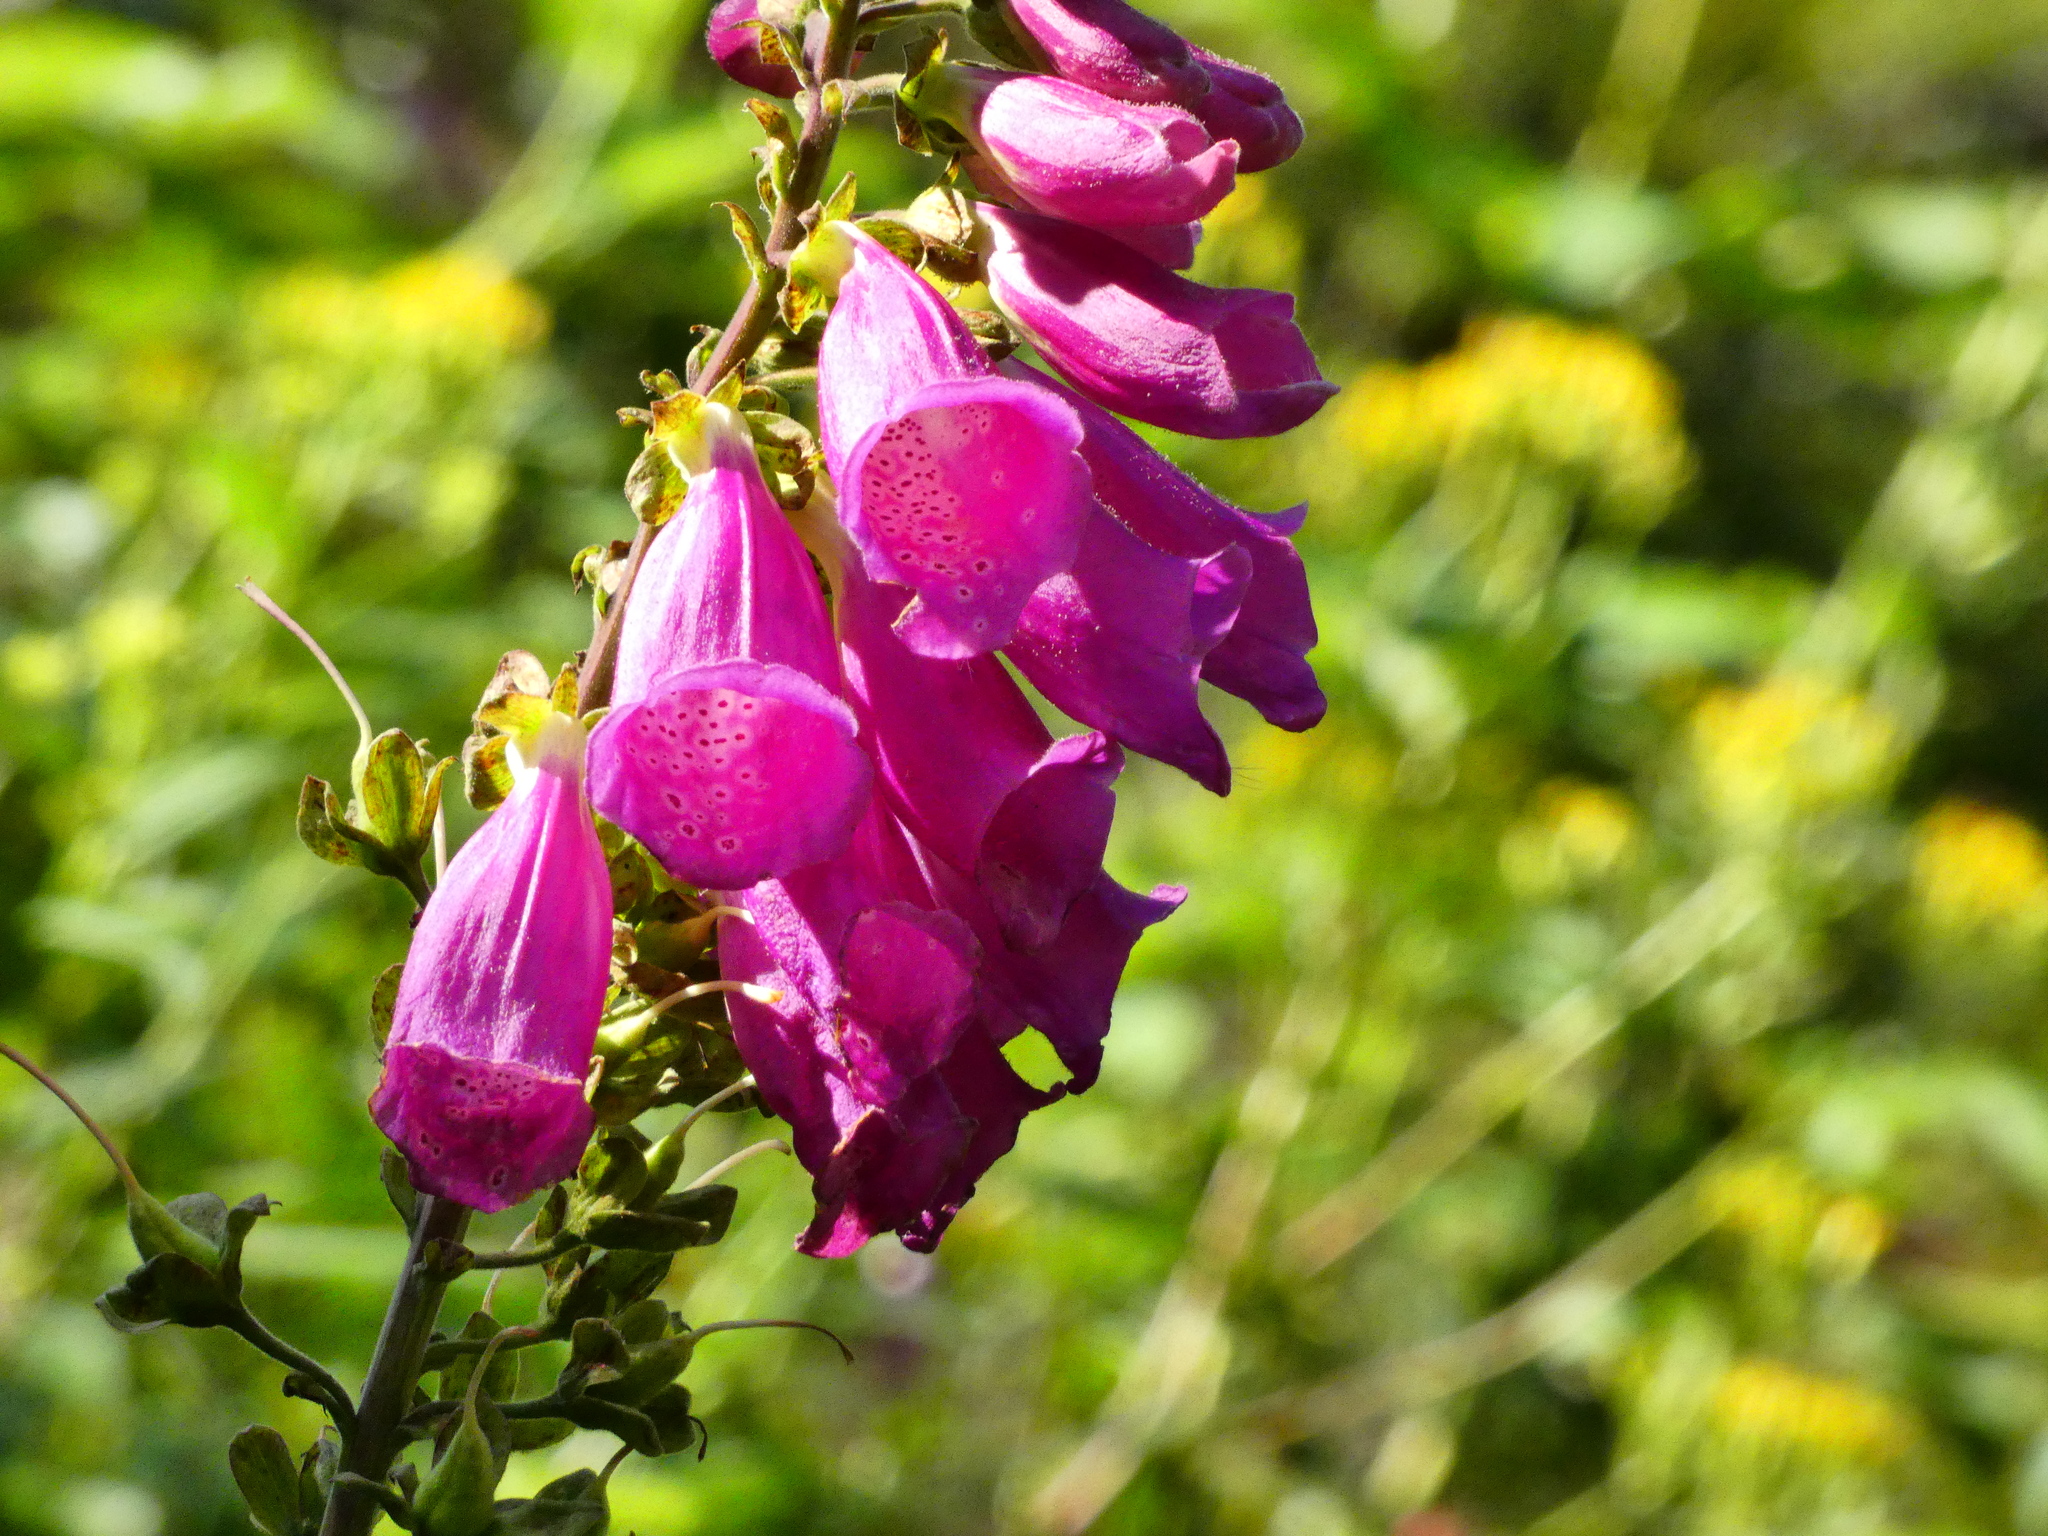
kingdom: Plantae
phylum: Tracheophyta
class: Magnoliopsida
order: Lamiales
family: Plantaginaceae
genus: Digitalis
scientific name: Digitalis purpurea
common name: Foxglove
